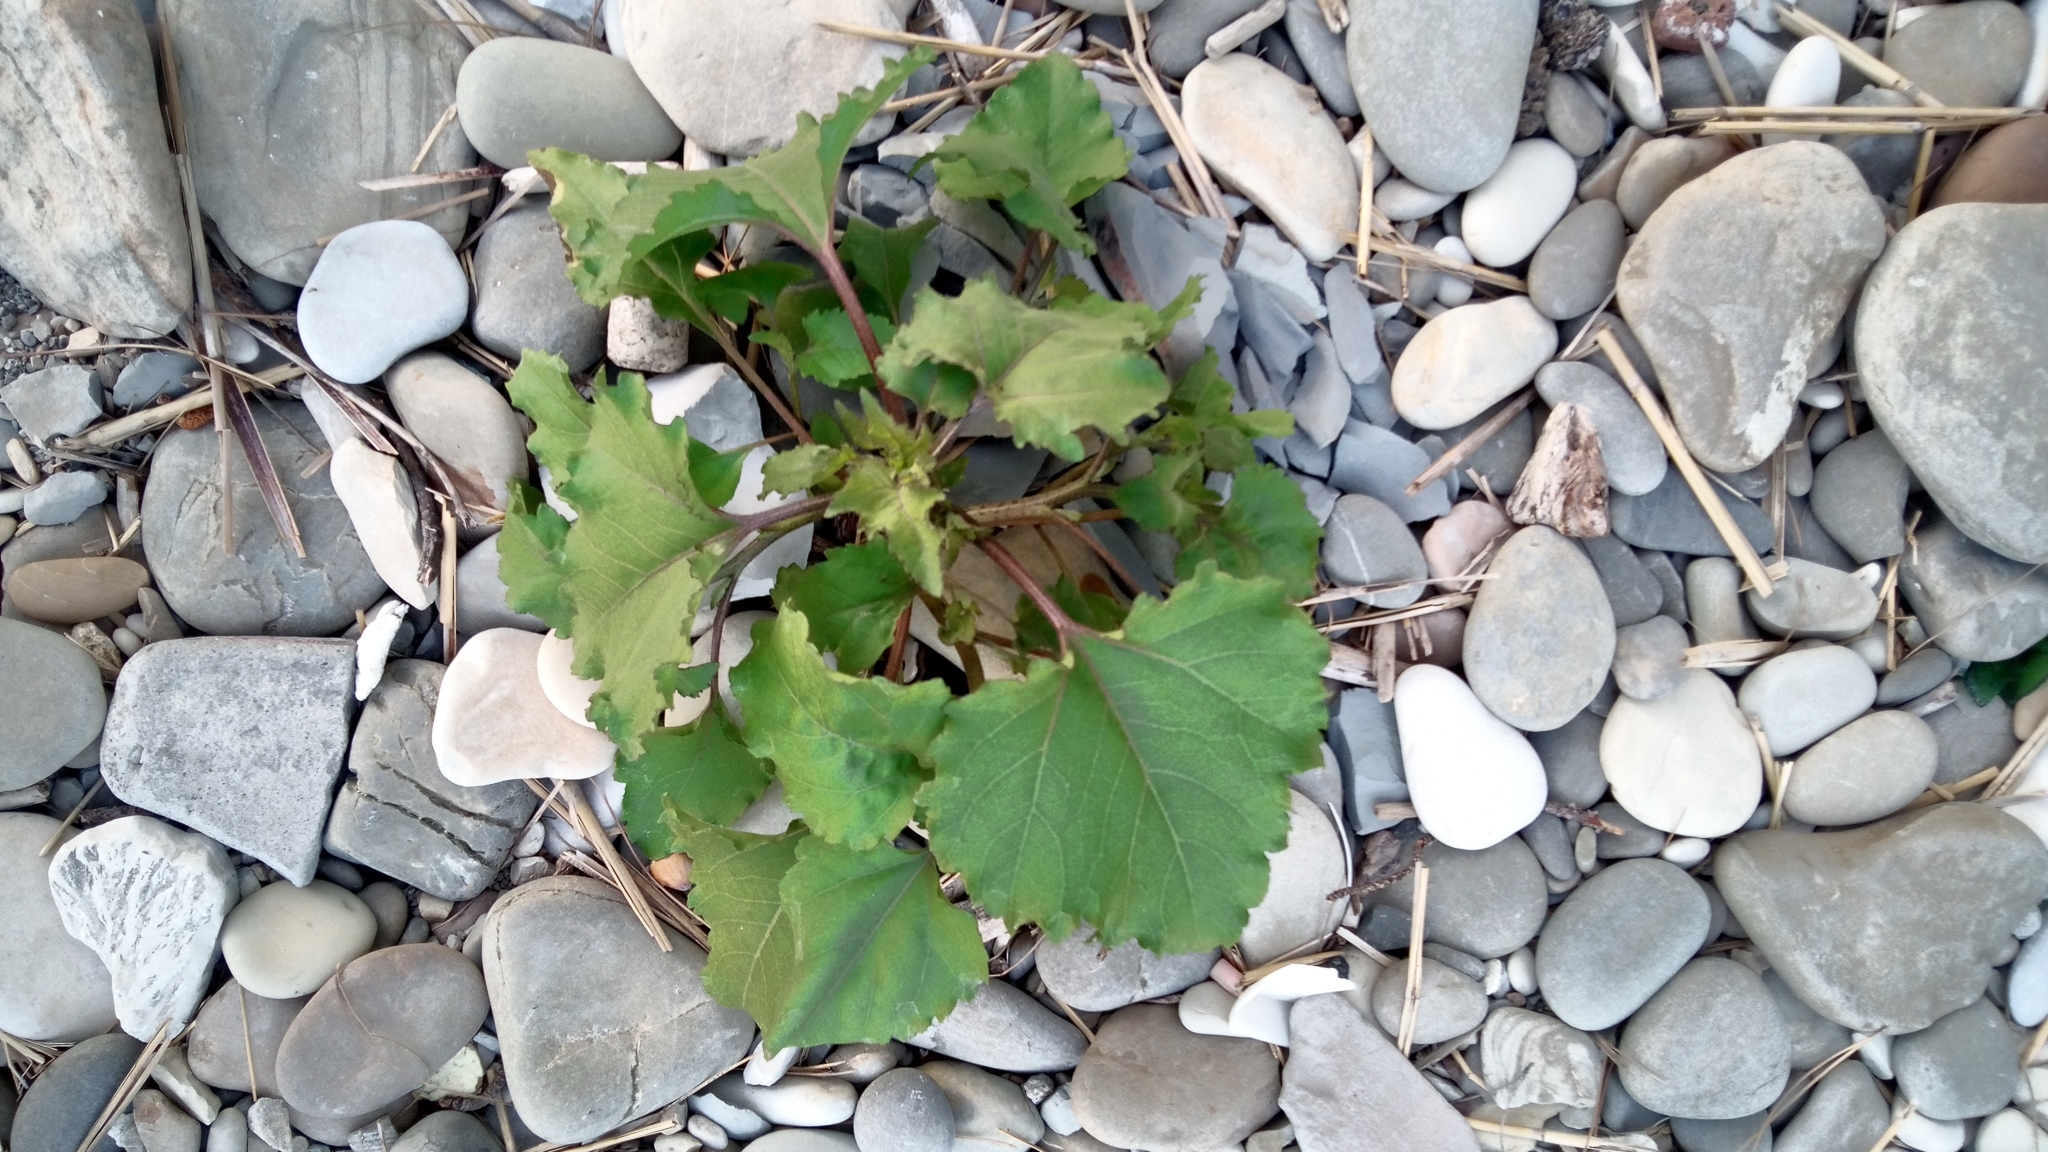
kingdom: Plantae
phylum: Tracheophyta
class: Magnoliopsida
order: Asterales
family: Asteraceae
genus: Xanthium
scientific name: Xanthium
